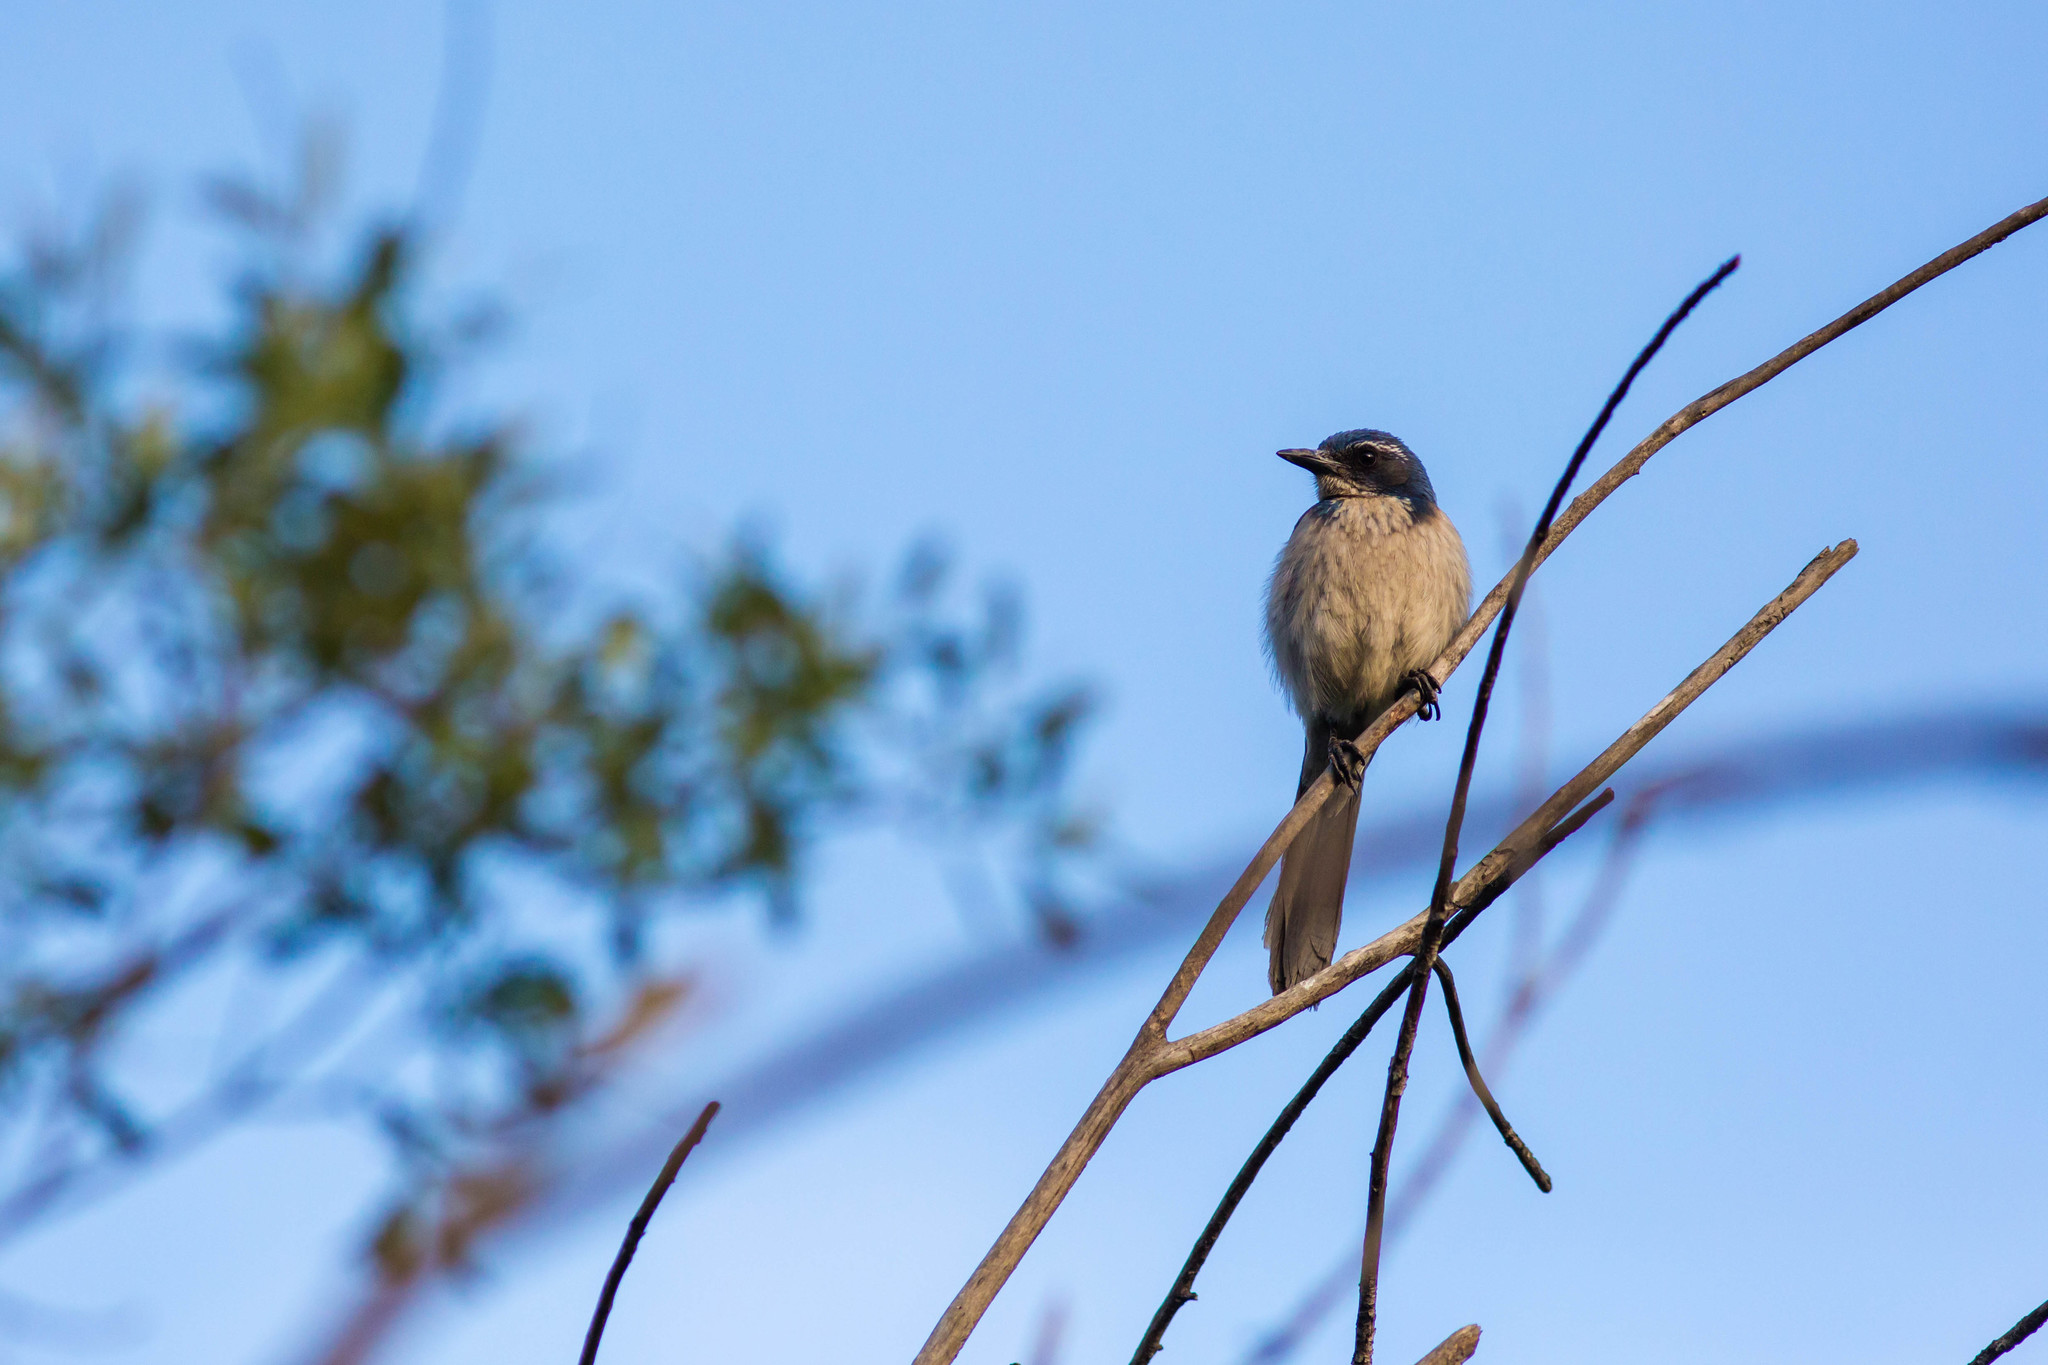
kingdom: Animalia
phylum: Chordata
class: Aves
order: Passeriformes
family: Corvidae
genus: Aphelocoma
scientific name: Aphelocoma californica
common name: California scrub-jay
